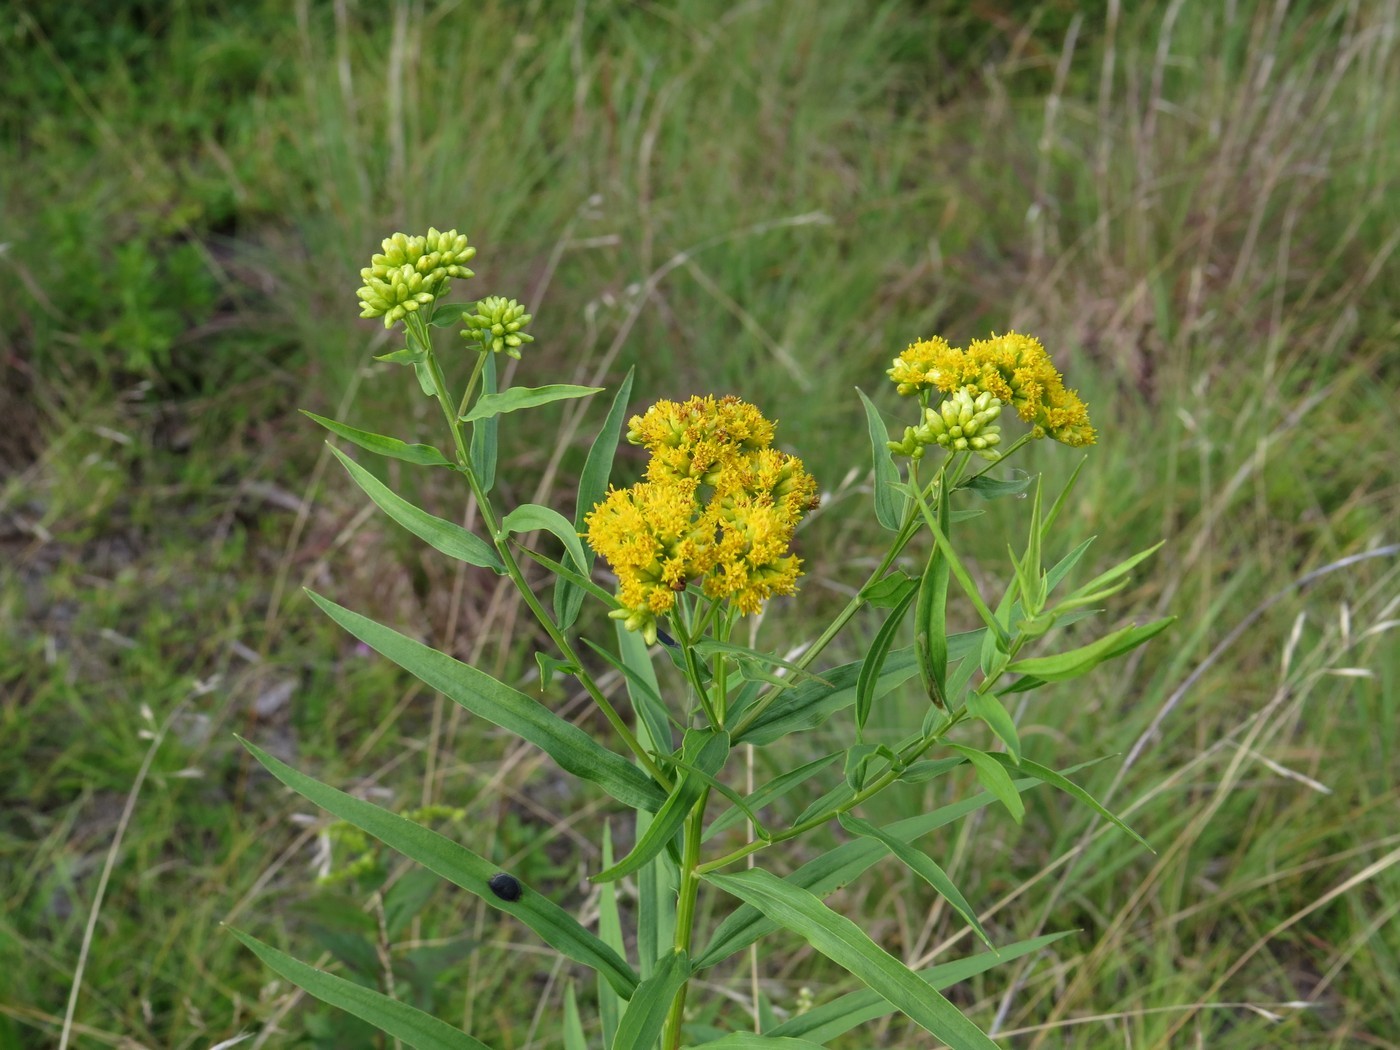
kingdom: Plantae
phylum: Tracheophyta
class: Magnoliopsida
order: Asterales
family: Asteraceae
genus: Euthamia
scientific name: Euthamia graminifolia
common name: Common goldentop
